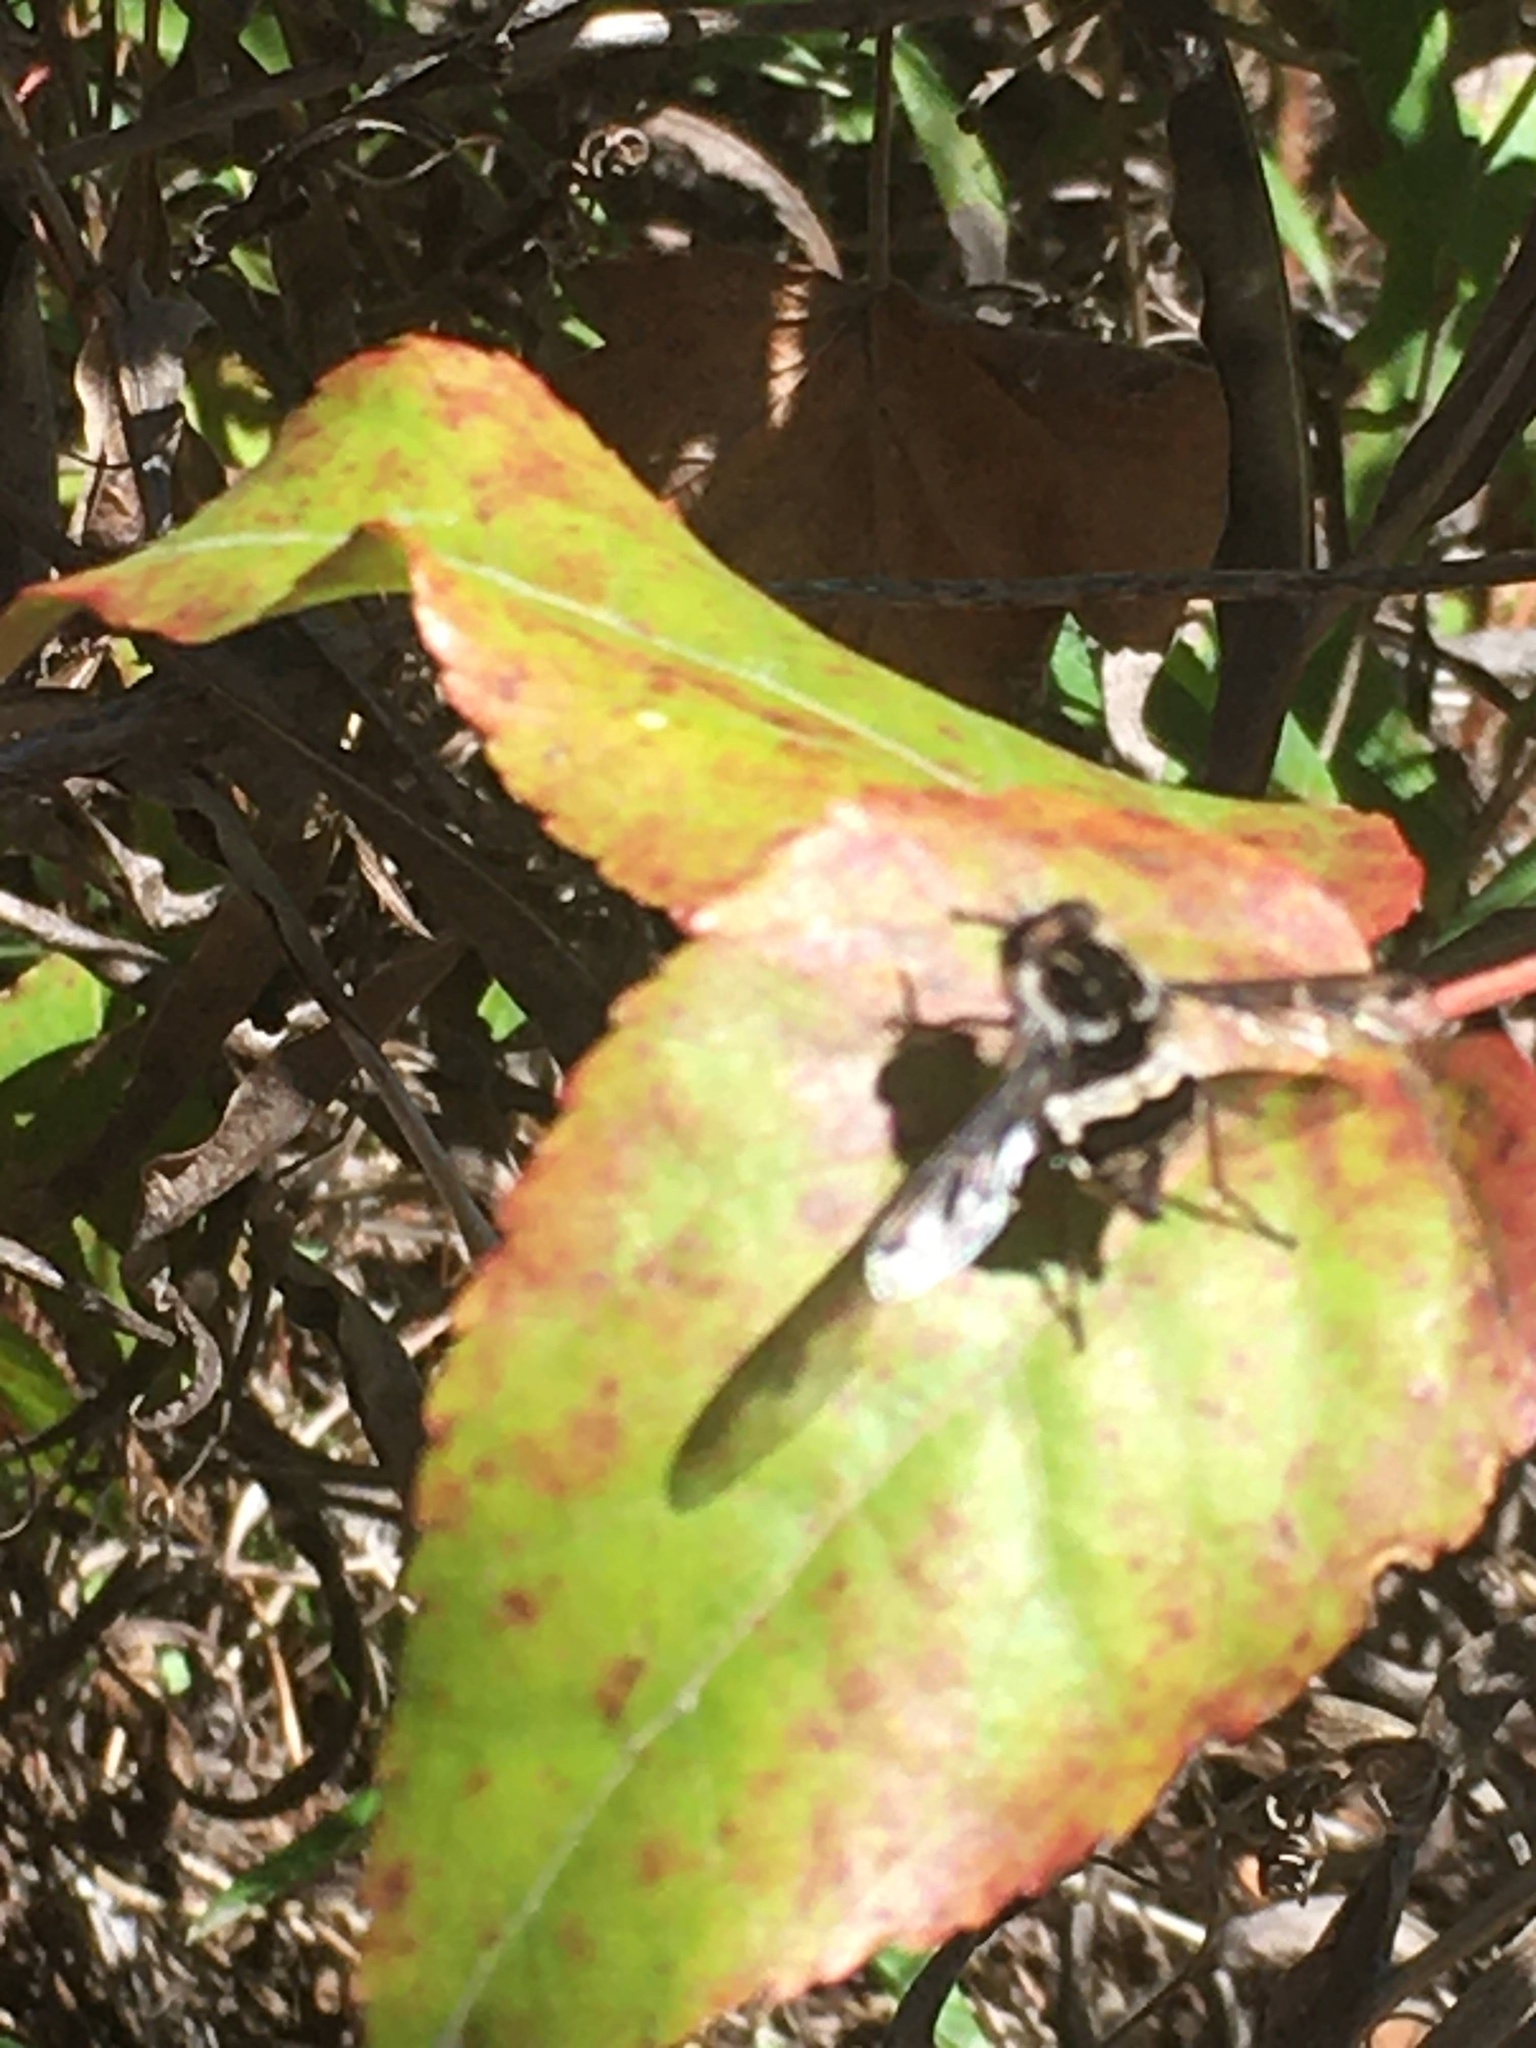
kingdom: Animalia
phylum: Arthropoda
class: Insecta
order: Diptera
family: Nemestrinidae
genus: Trichophthalma
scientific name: Trichophthalma amaena
